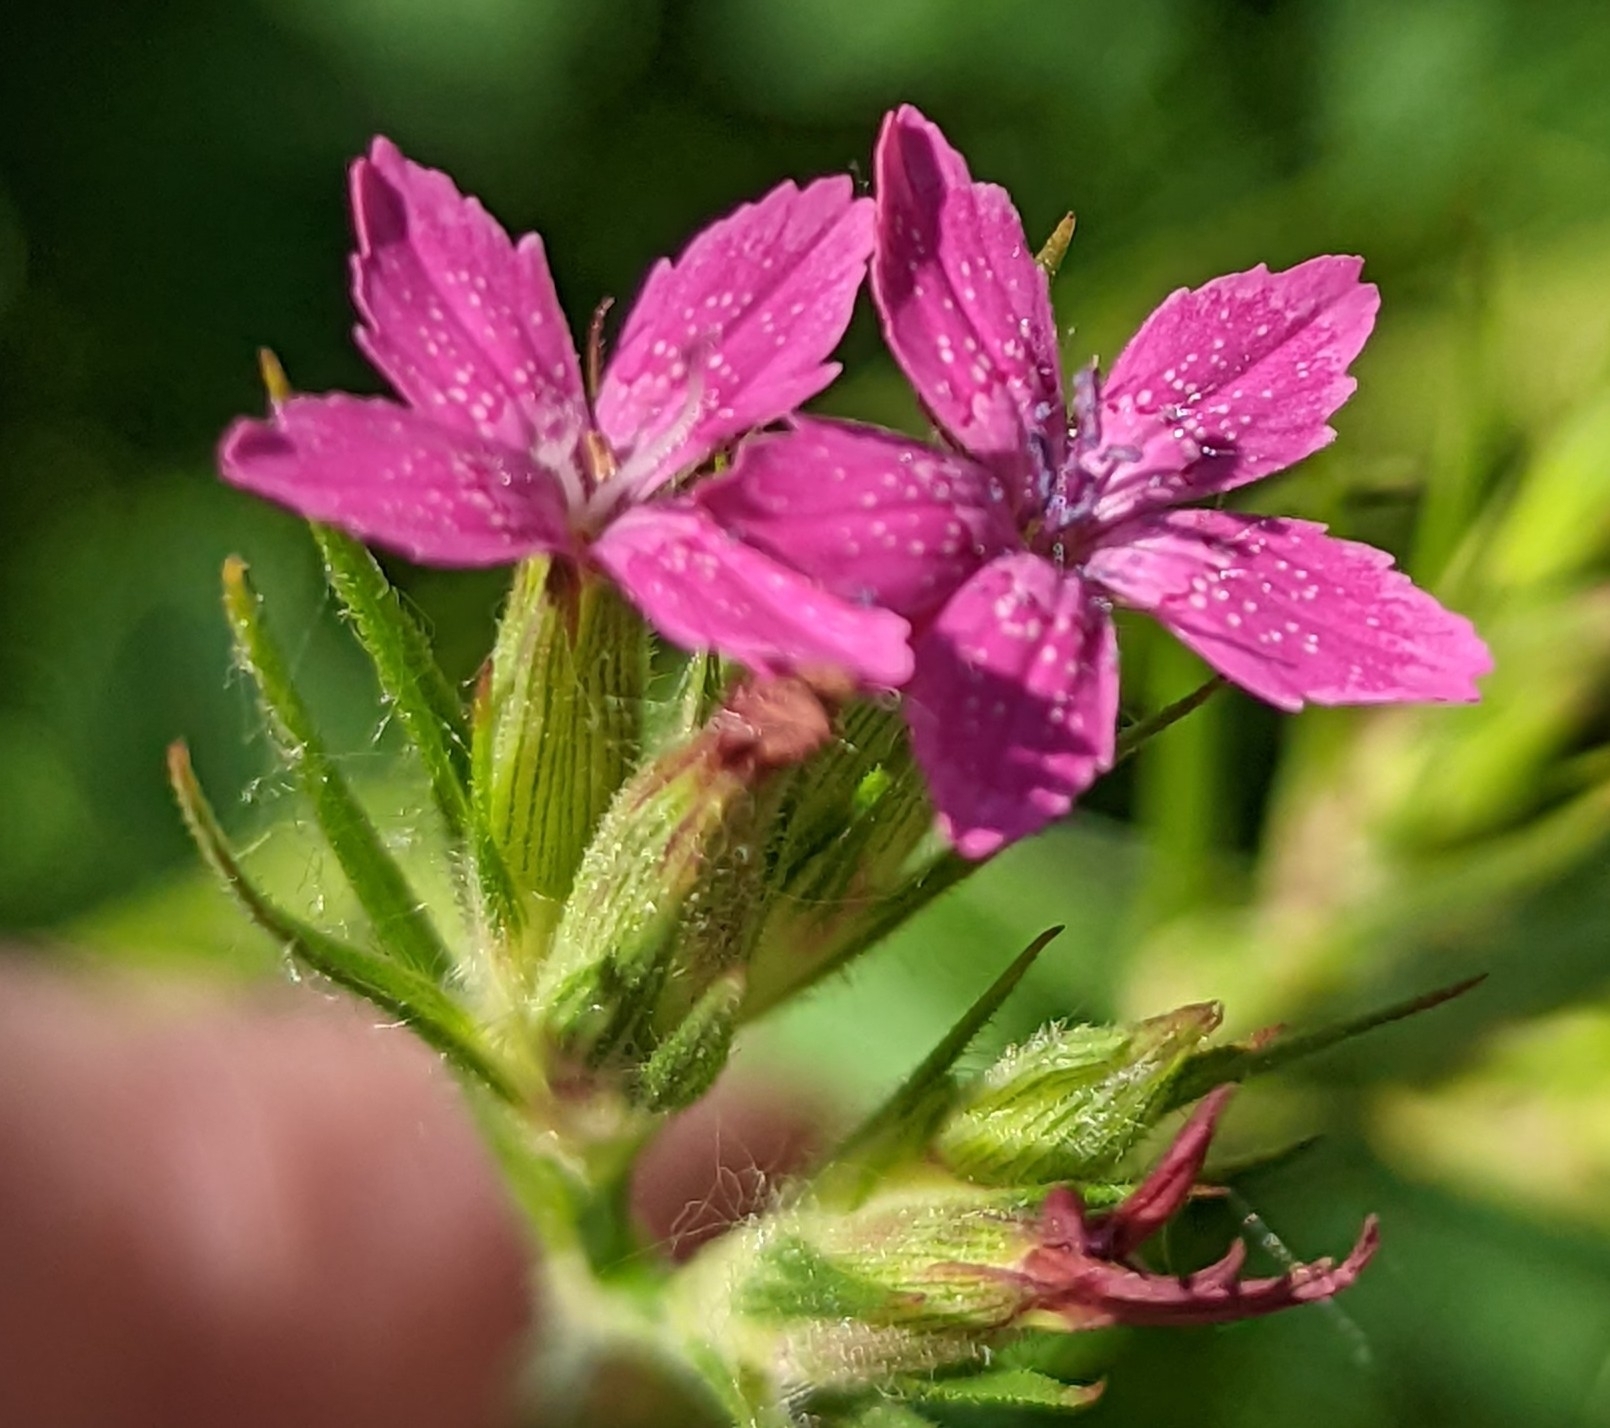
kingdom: Plantae
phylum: Tracheophyta
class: Magnoliopsida
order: Caryophyllales
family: Caryophyllaceae
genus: Dianthus
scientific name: Dianthus armeria
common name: Deptford pink
